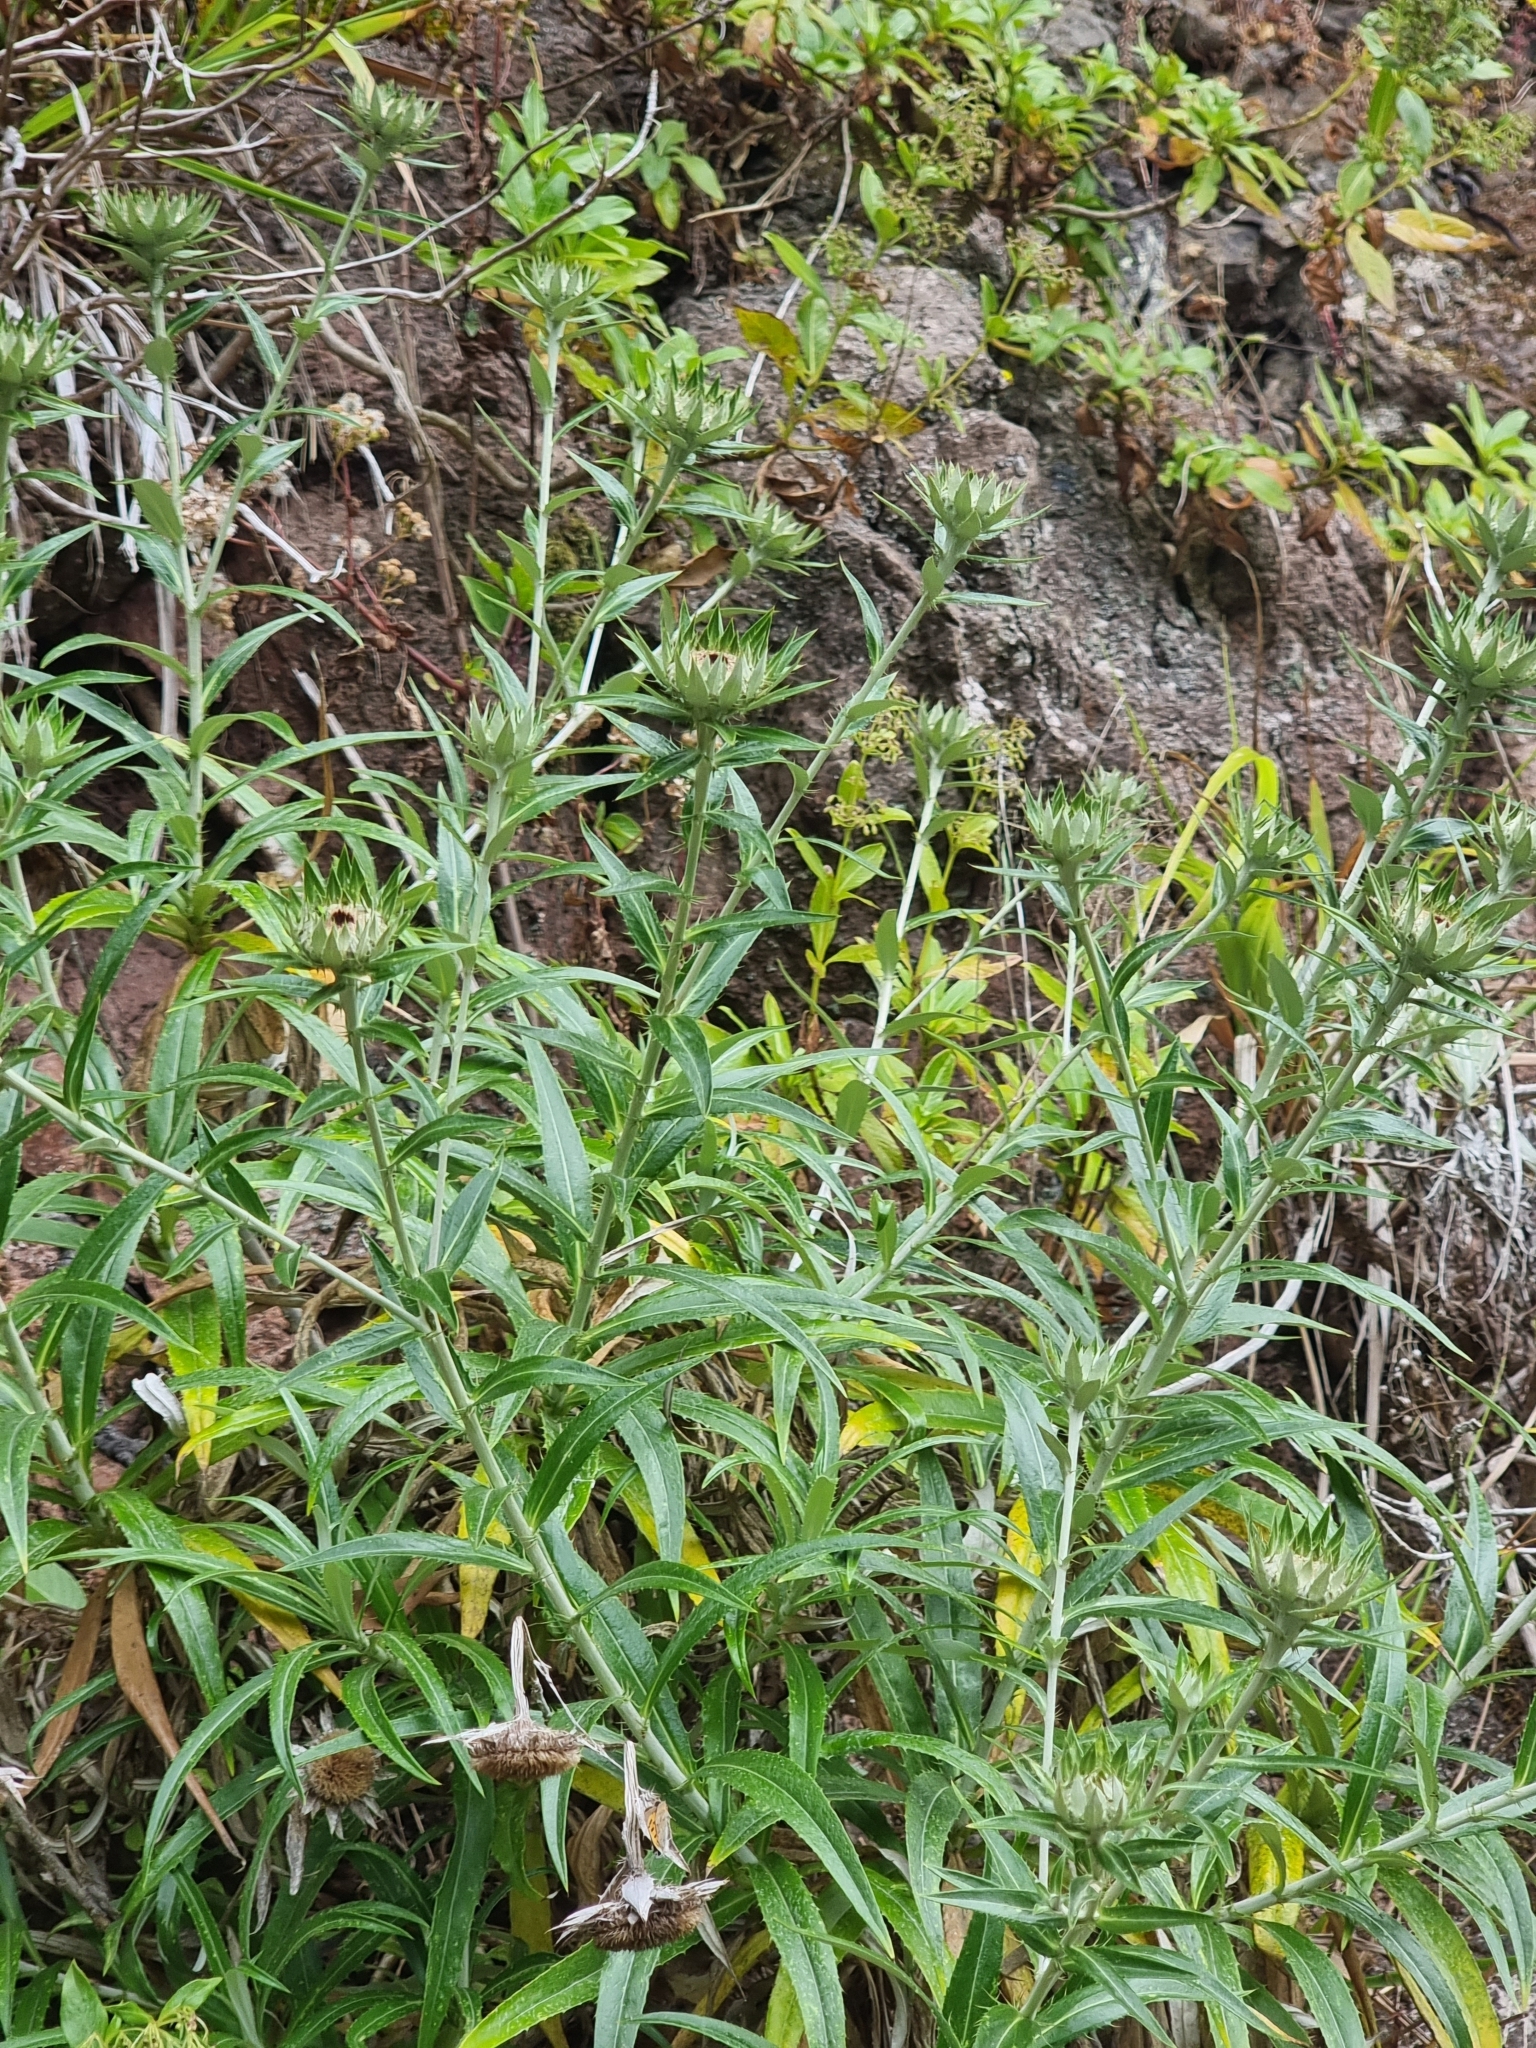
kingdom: Plantae
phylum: Tracheophyta
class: Magnoliopsida
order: Asterales
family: Asteraceae
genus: Carlina
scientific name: Carlina salicifolia
